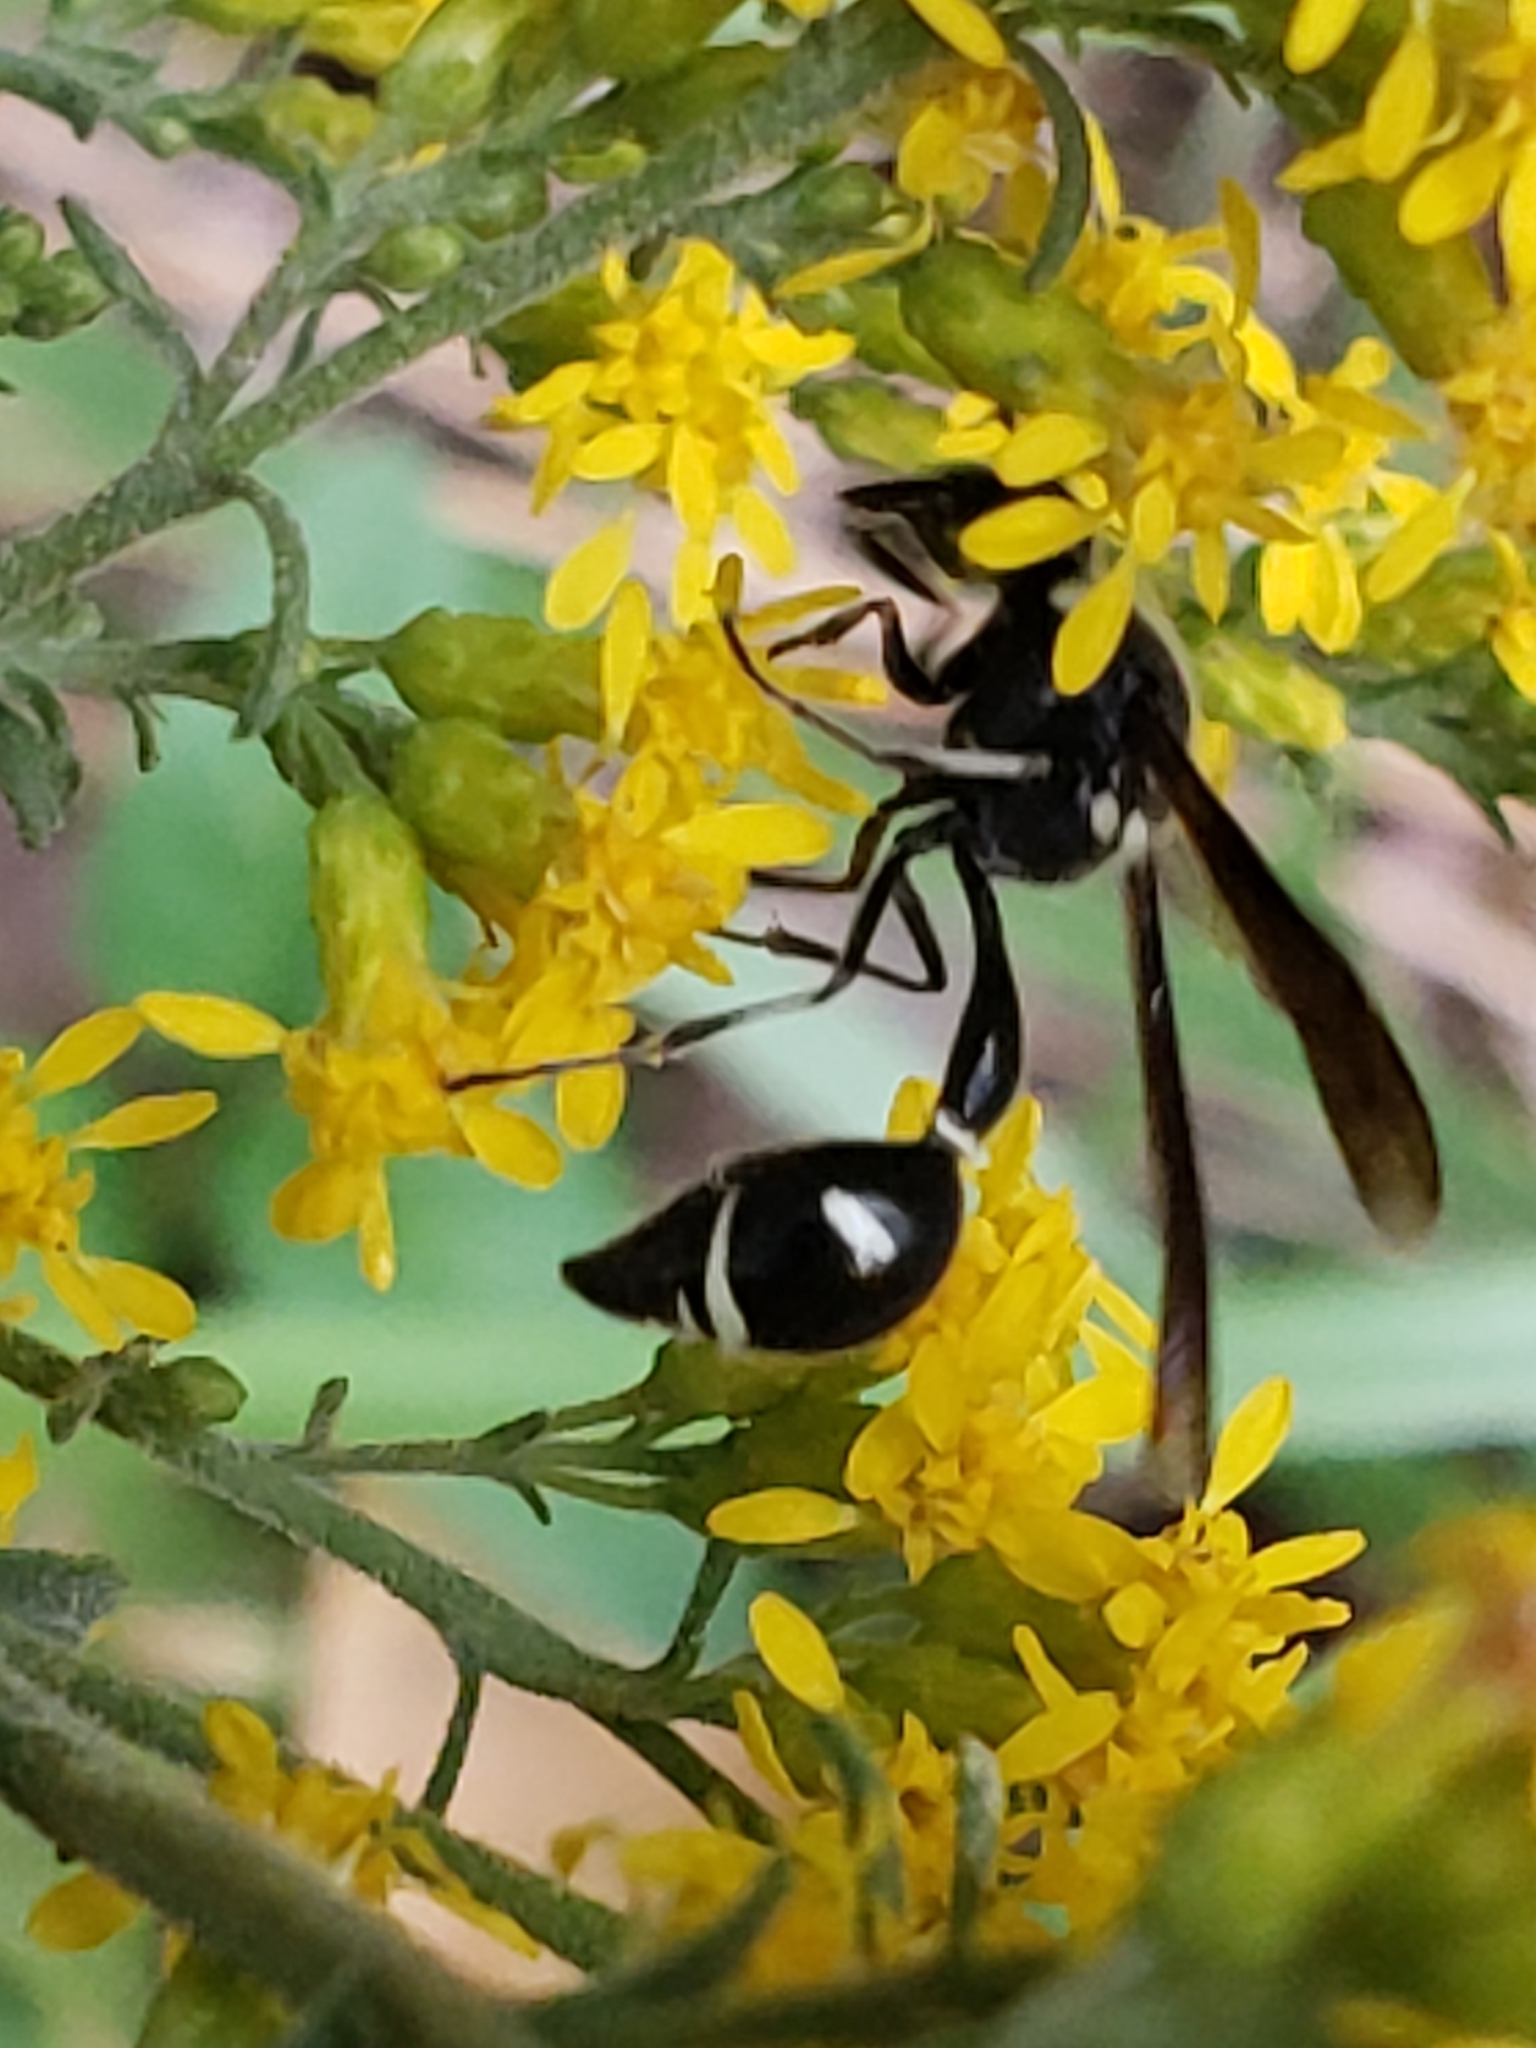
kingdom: Animalia
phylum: Arthropoda
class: Insecta
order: Hymenoptera
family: Vespidae
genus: Eumenes
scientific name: Eumenes fraternus
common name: Fraternal potter wasp
